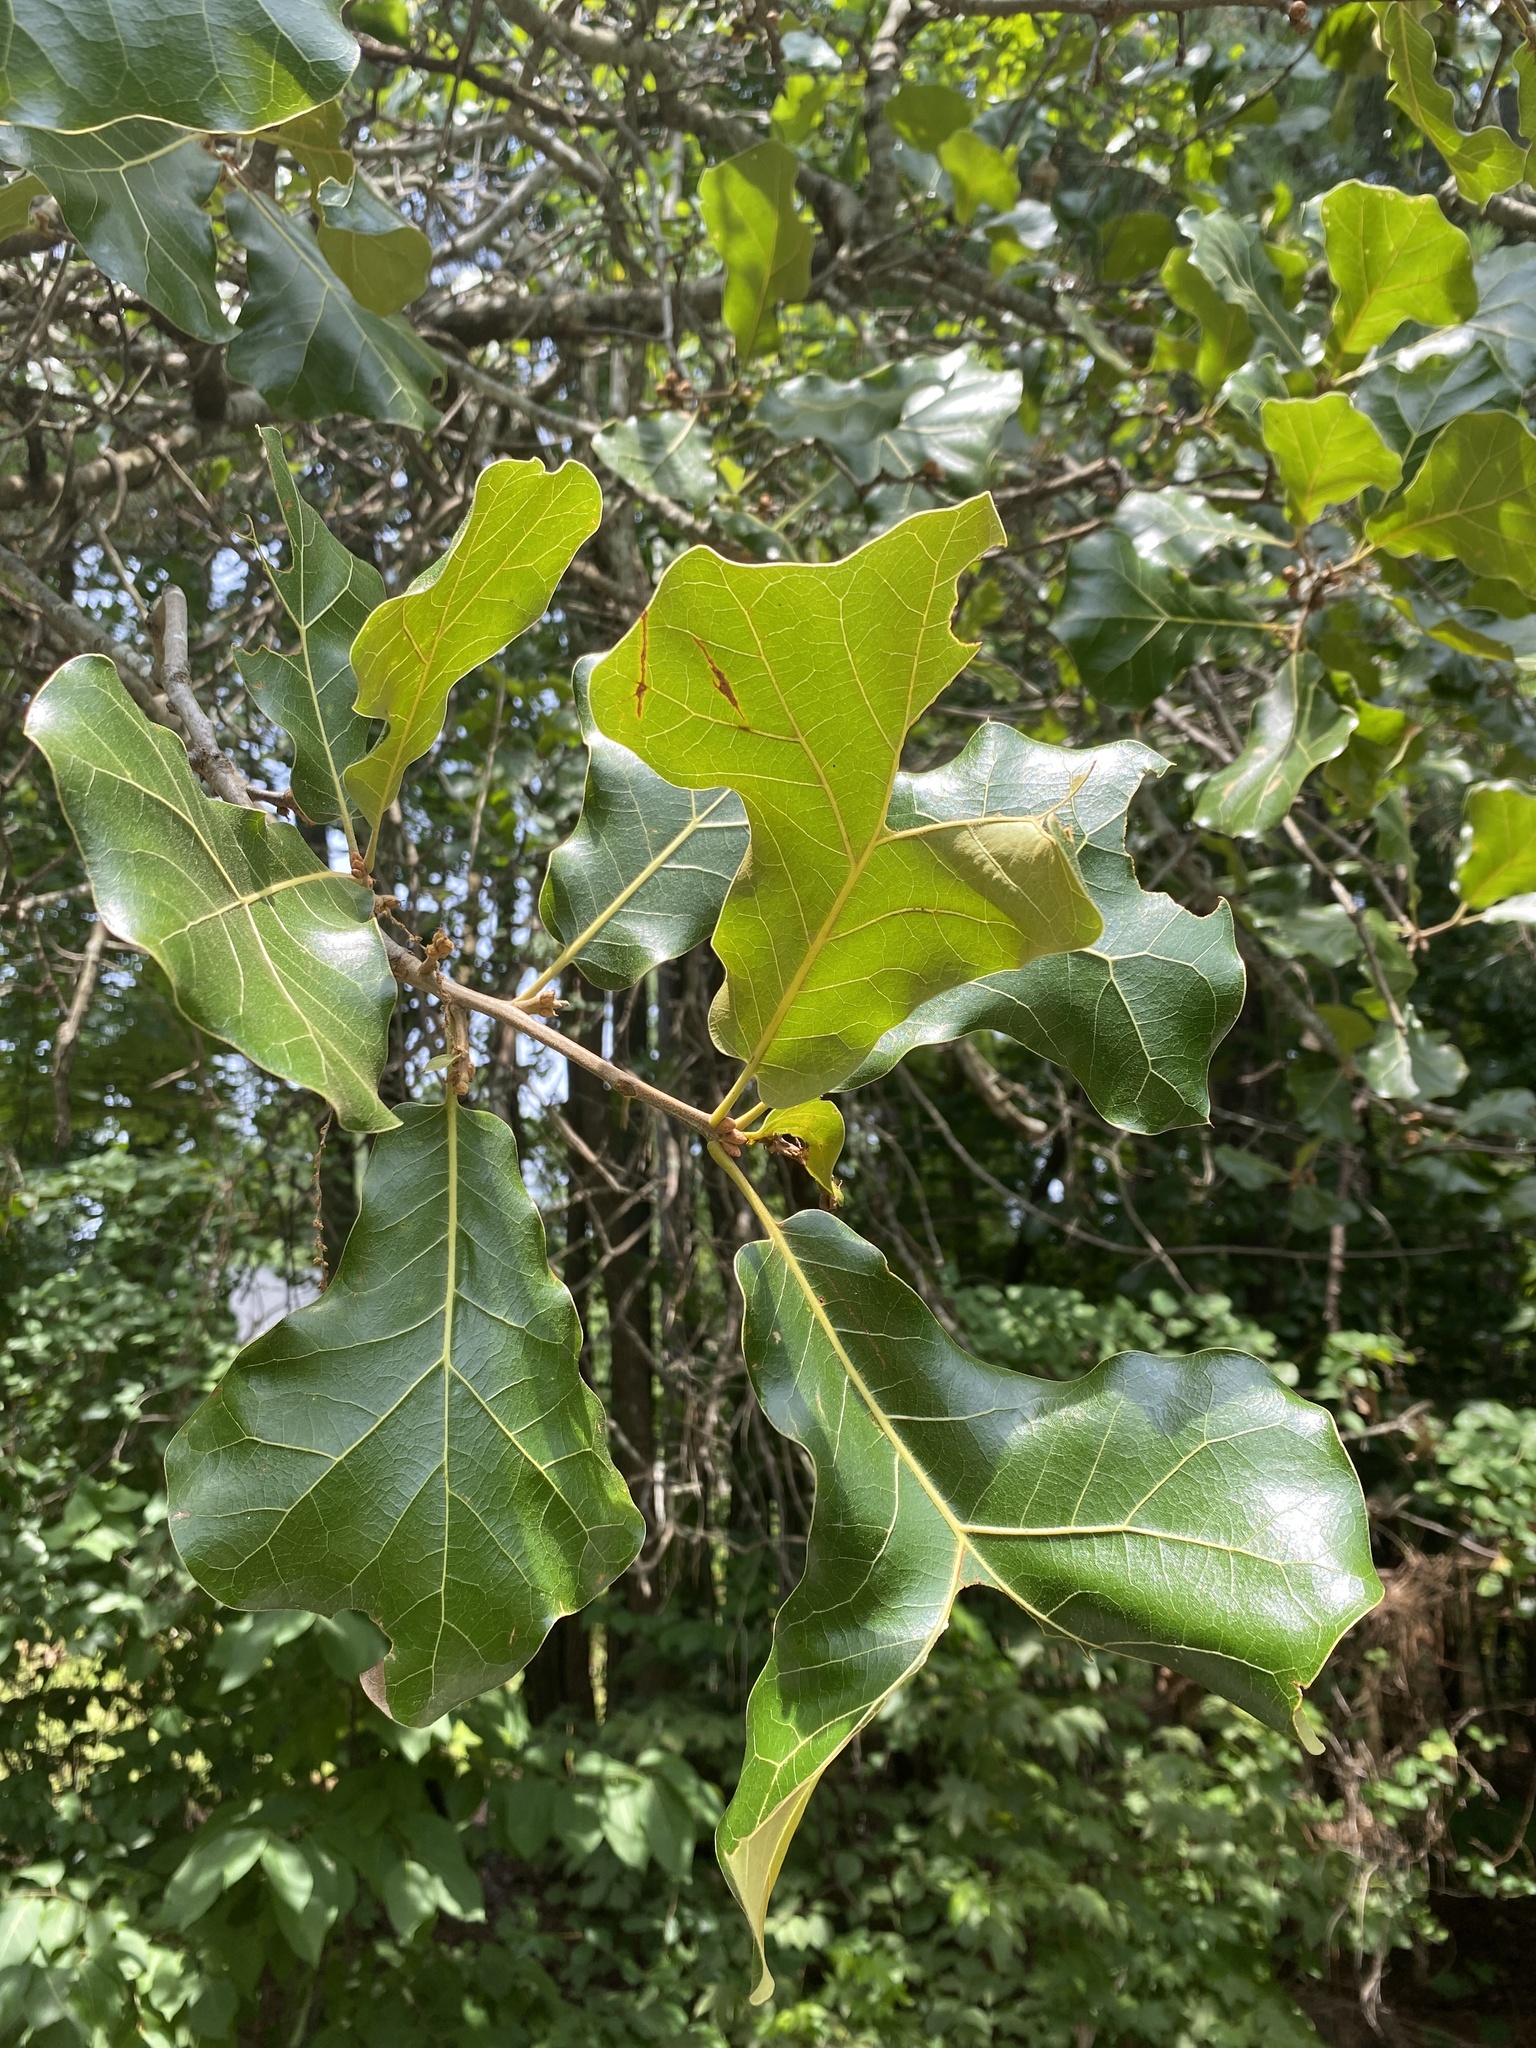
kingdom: Plantae
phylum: Tracheophyta
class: Magnoliopsida
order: Fagales
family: Fagaceae
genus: Quercus
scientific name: Quercus marilandica
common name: Blackjack oak
